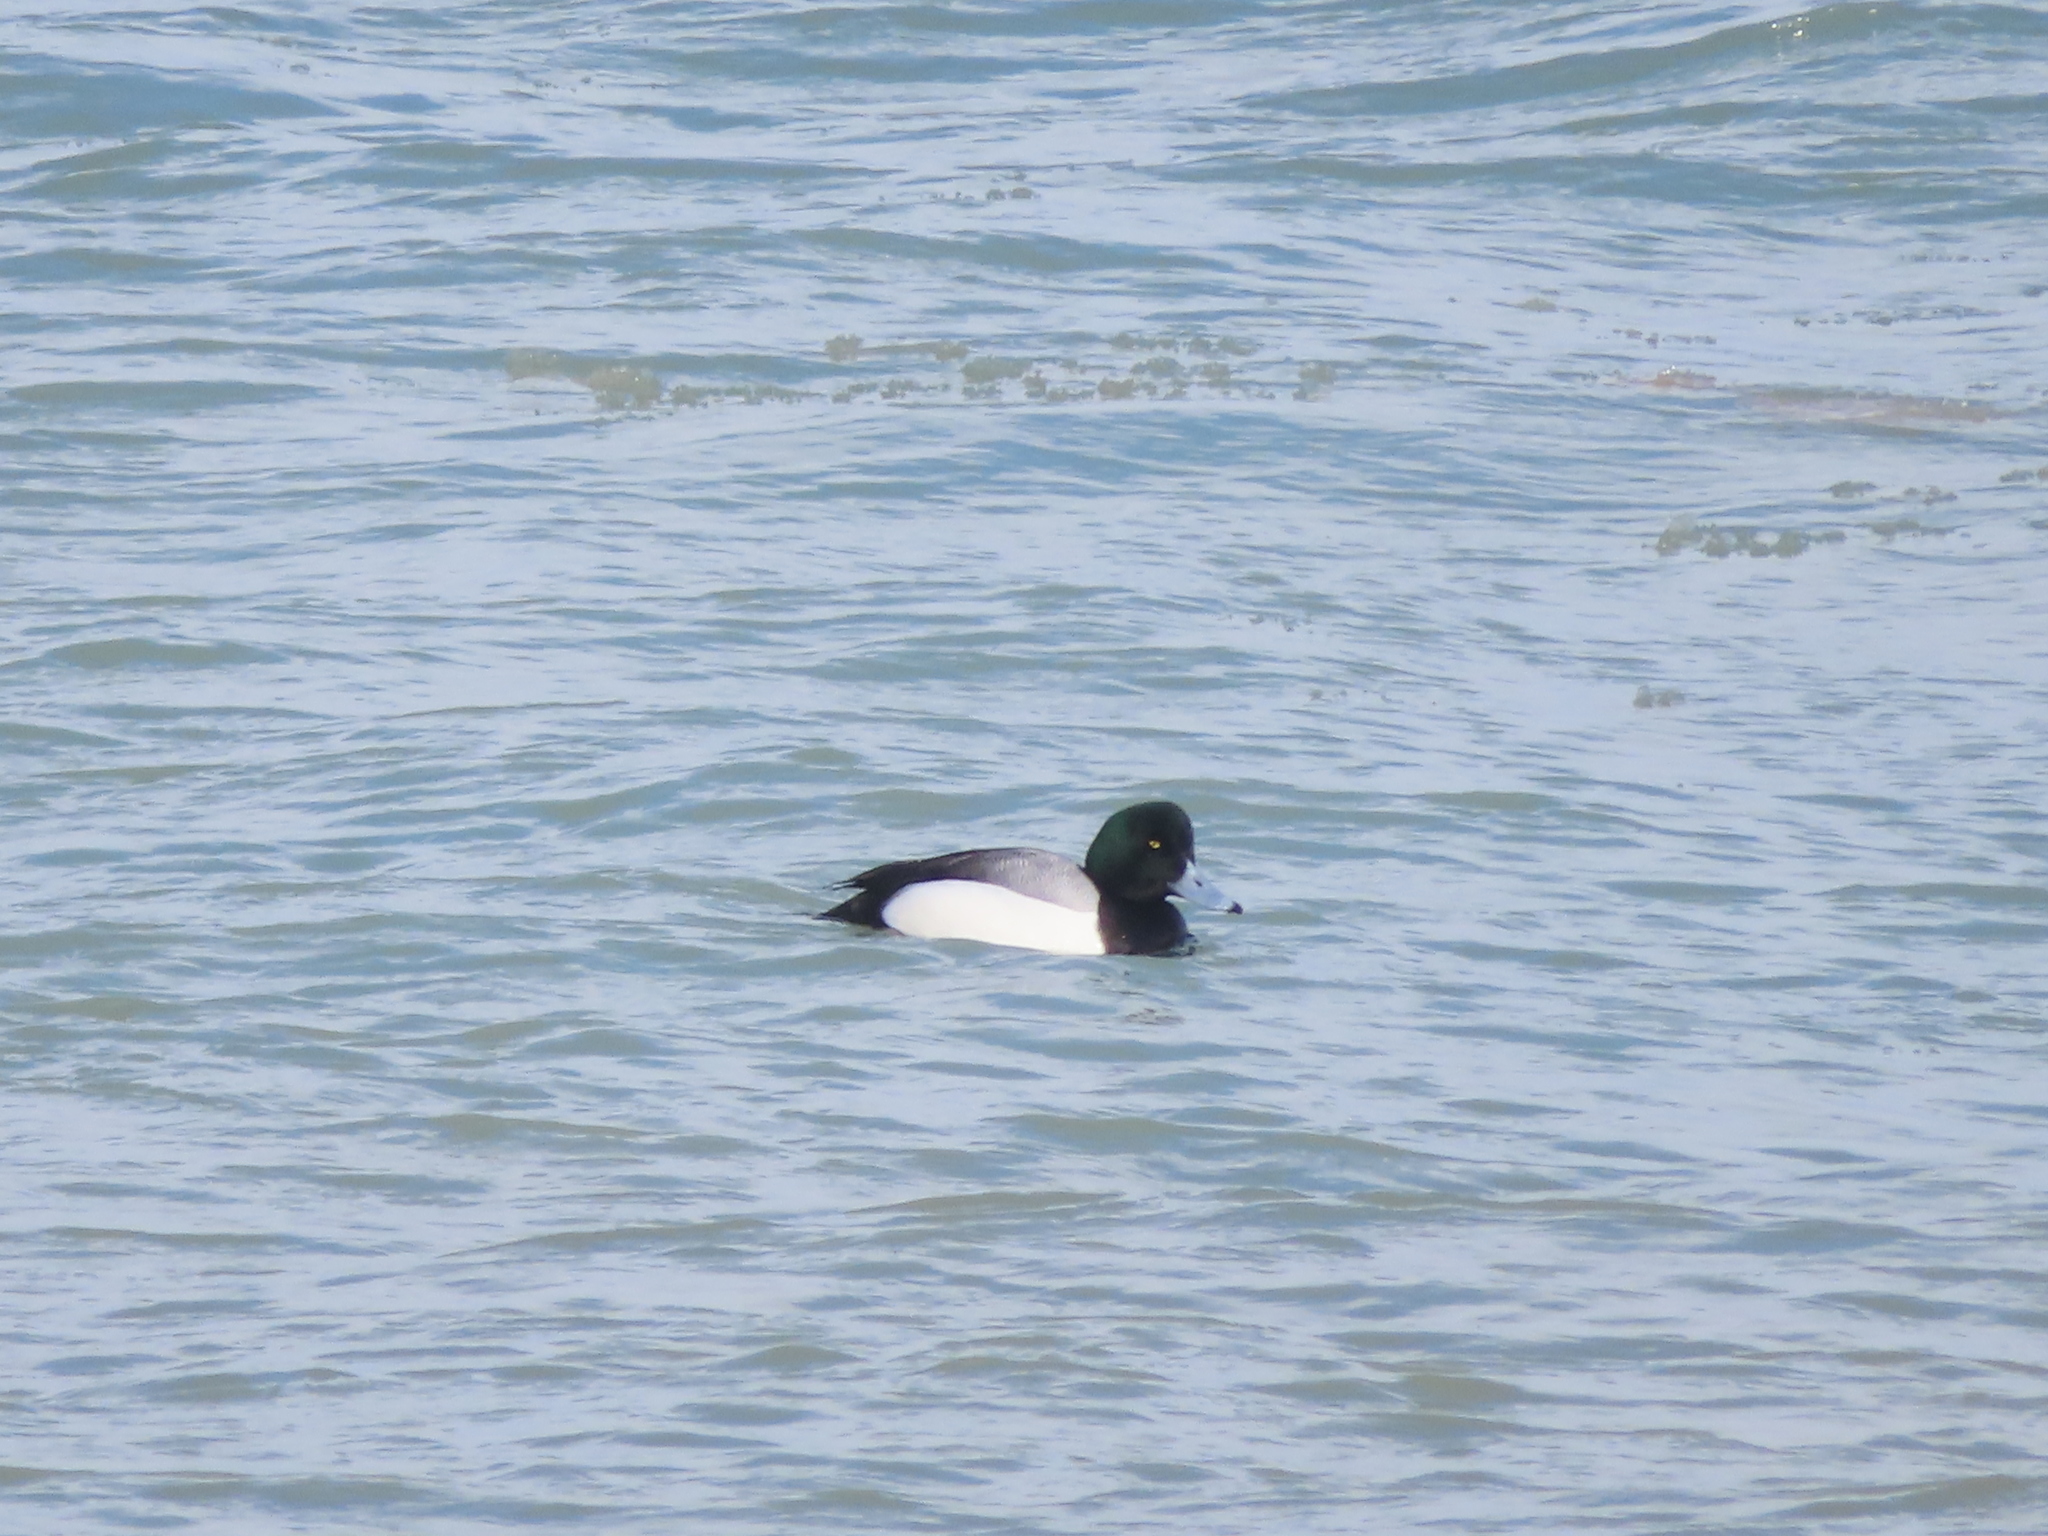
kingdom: Animalia
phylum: Chordata
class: Aves
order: Anseriformes
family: Anatidae
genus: Aythya
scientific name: Aythya marila
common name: Greater scaup
